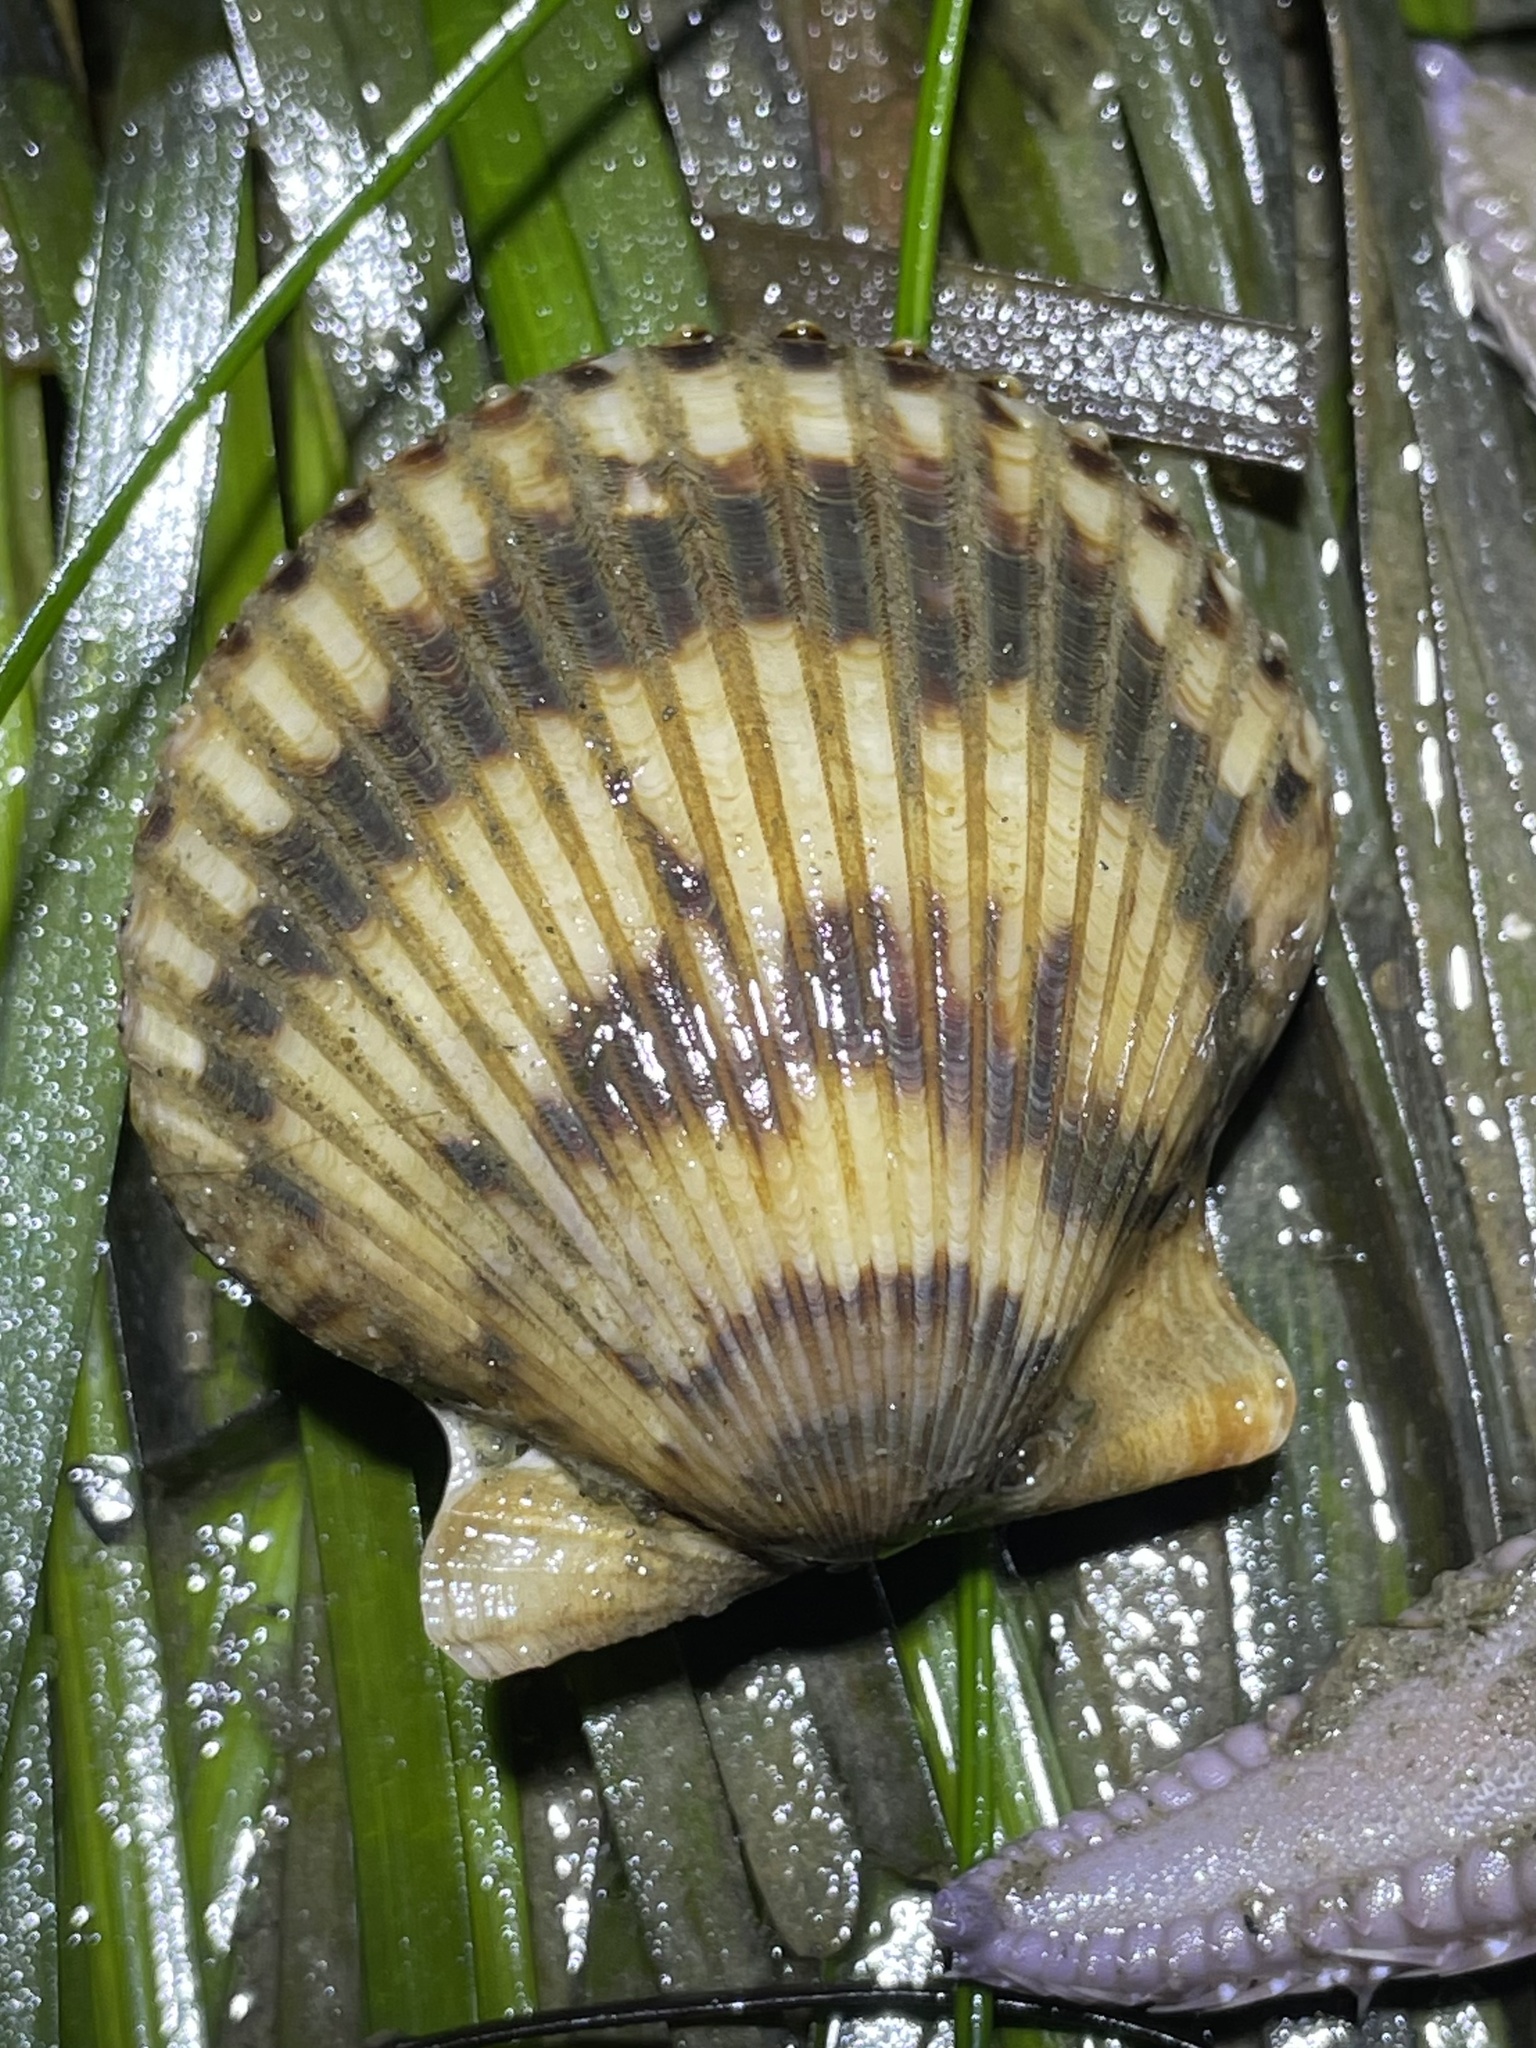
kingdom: Animalia
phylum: Mollusca
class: Bivalvia
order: Pectinida
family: Pectinidae
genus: Argopecten
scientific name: Argopecten ventricosus
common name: Catarina scallop
